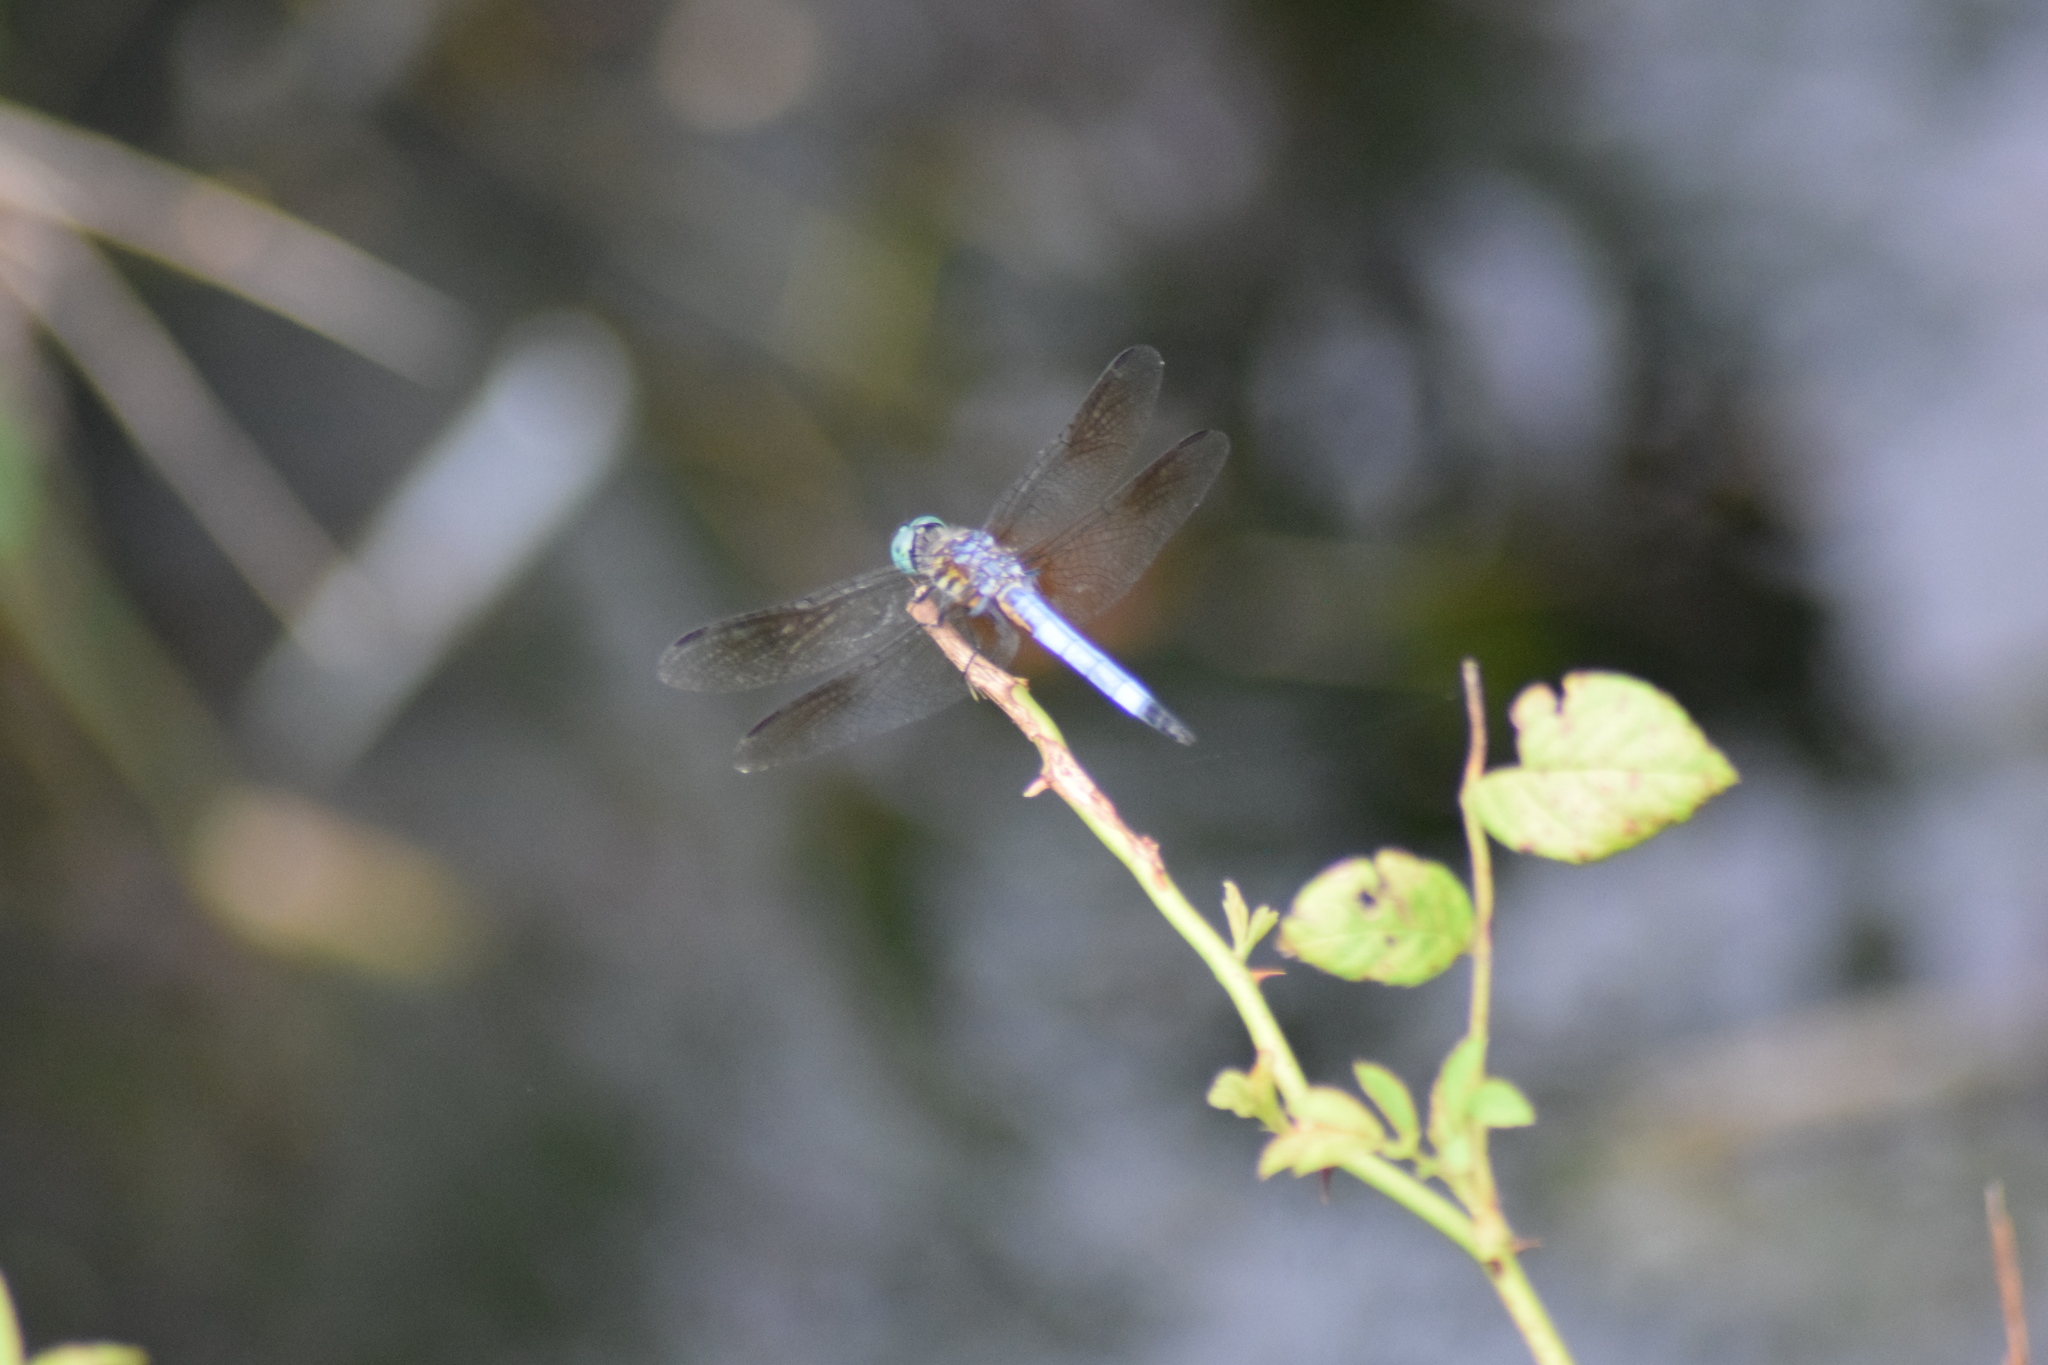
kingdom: Animalia
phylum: Arthropoda
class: Insecta
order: Odonata
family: Libellulidae
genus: Pachydiplax
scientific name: Pachydiplax longipennis
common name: Blue dasher
